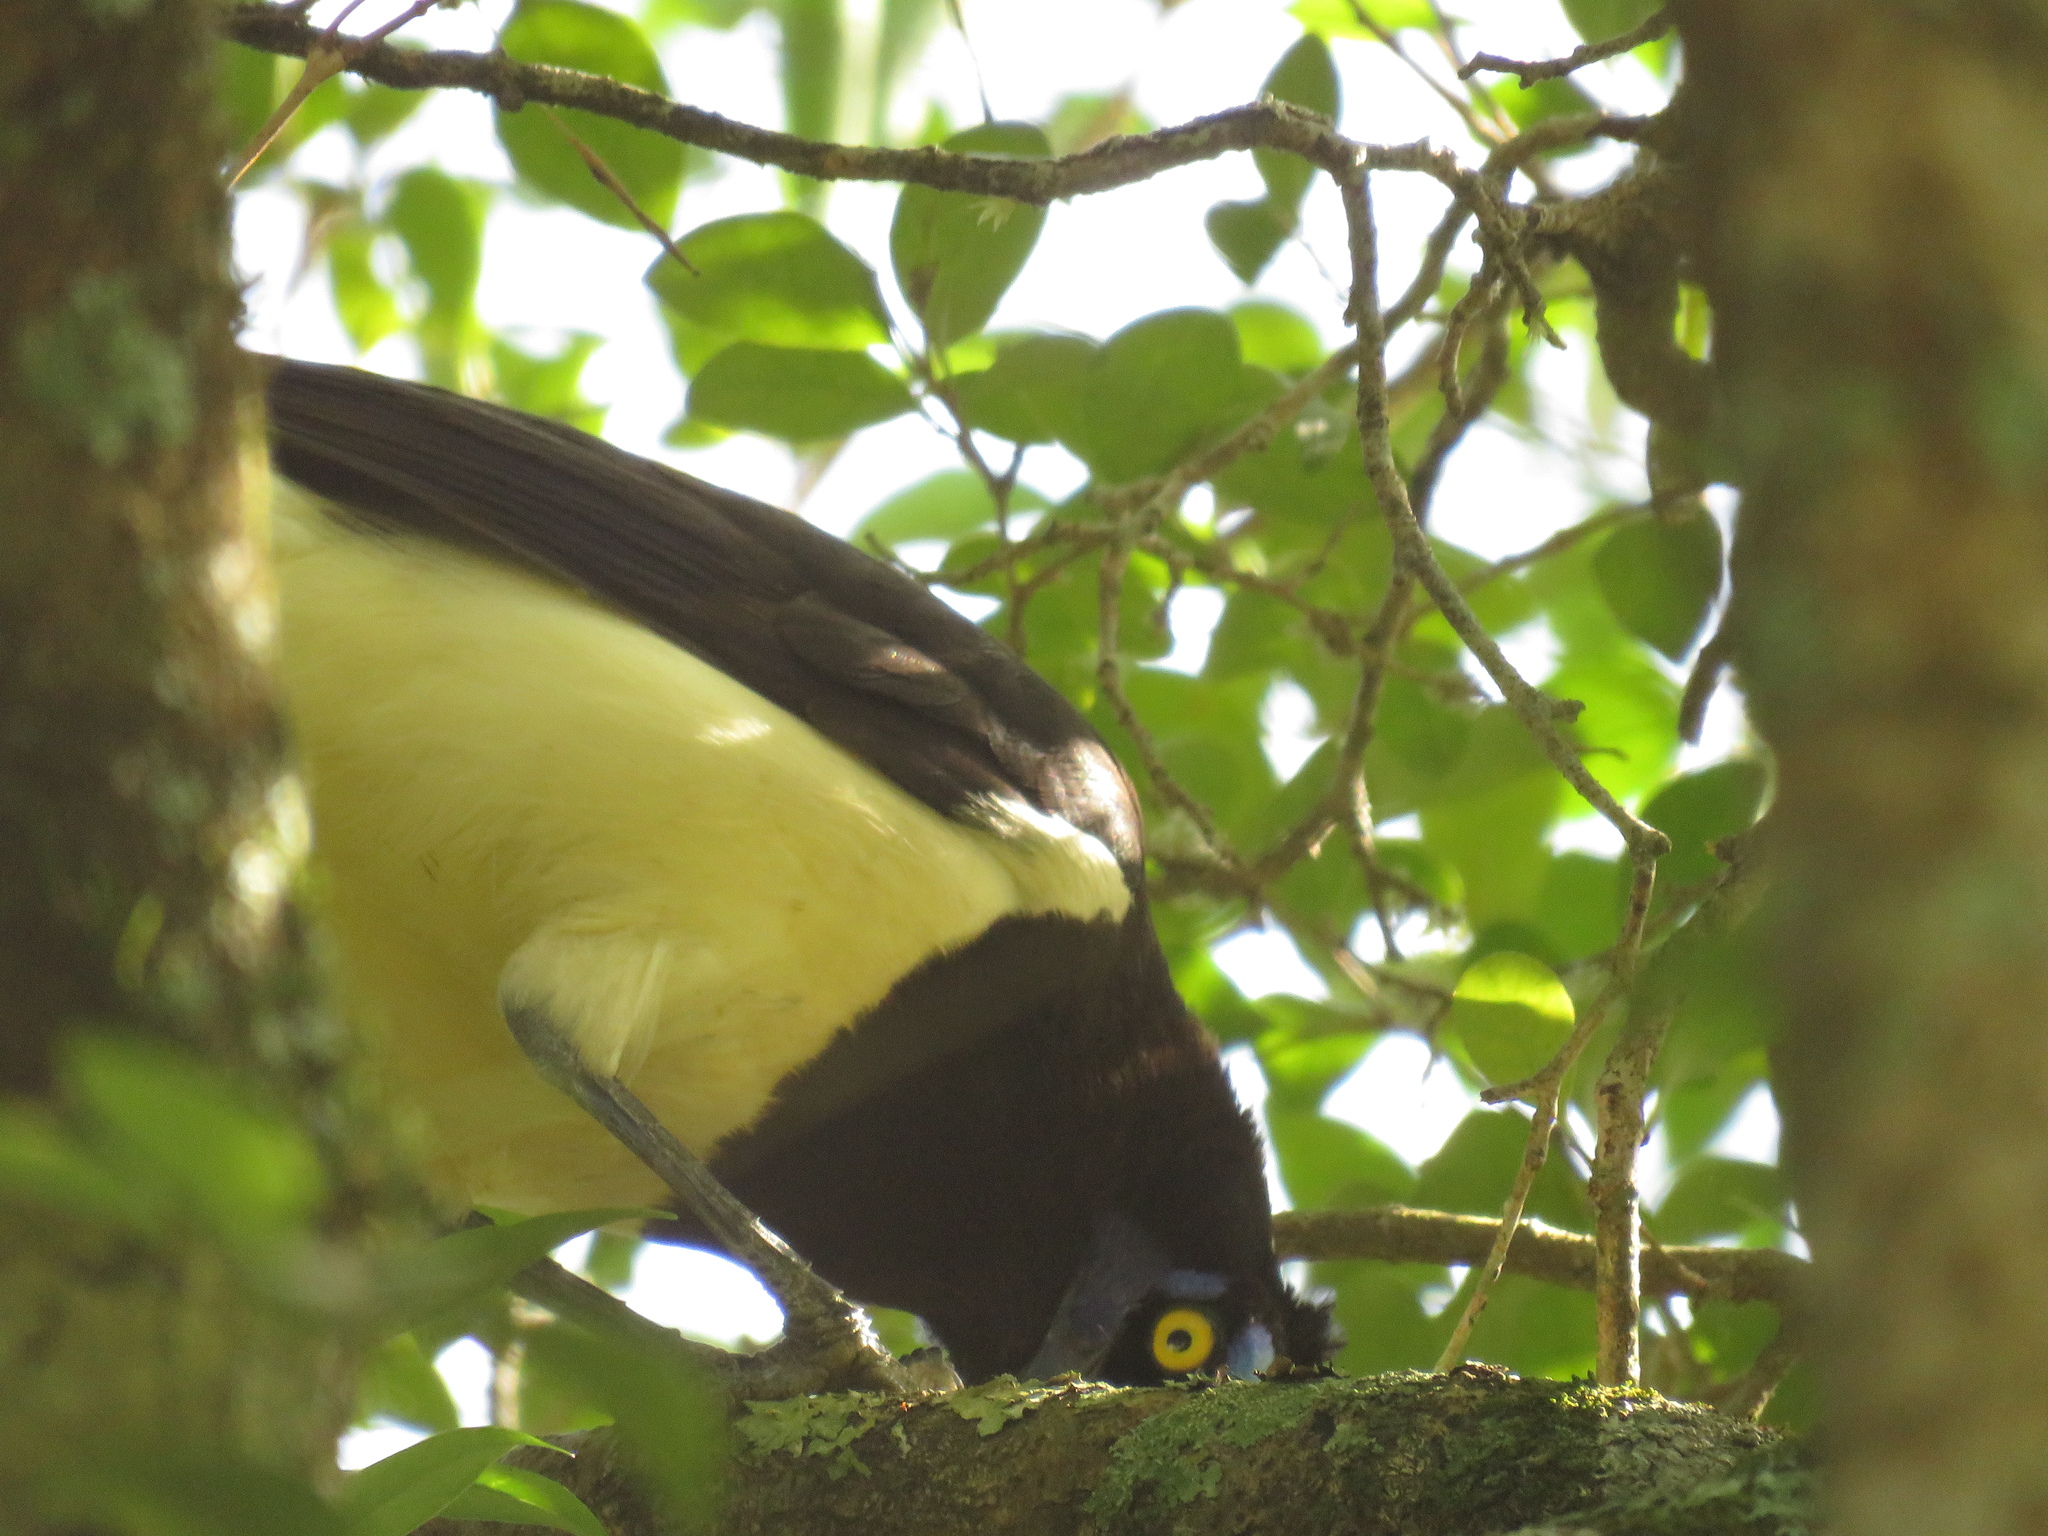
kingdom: Animalia
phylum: Chordata
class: Aves
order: Passeriformes
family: Corvidae
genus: Cyanocorax
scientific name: Cyanocorax chrysops
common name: Plush-crested jay
